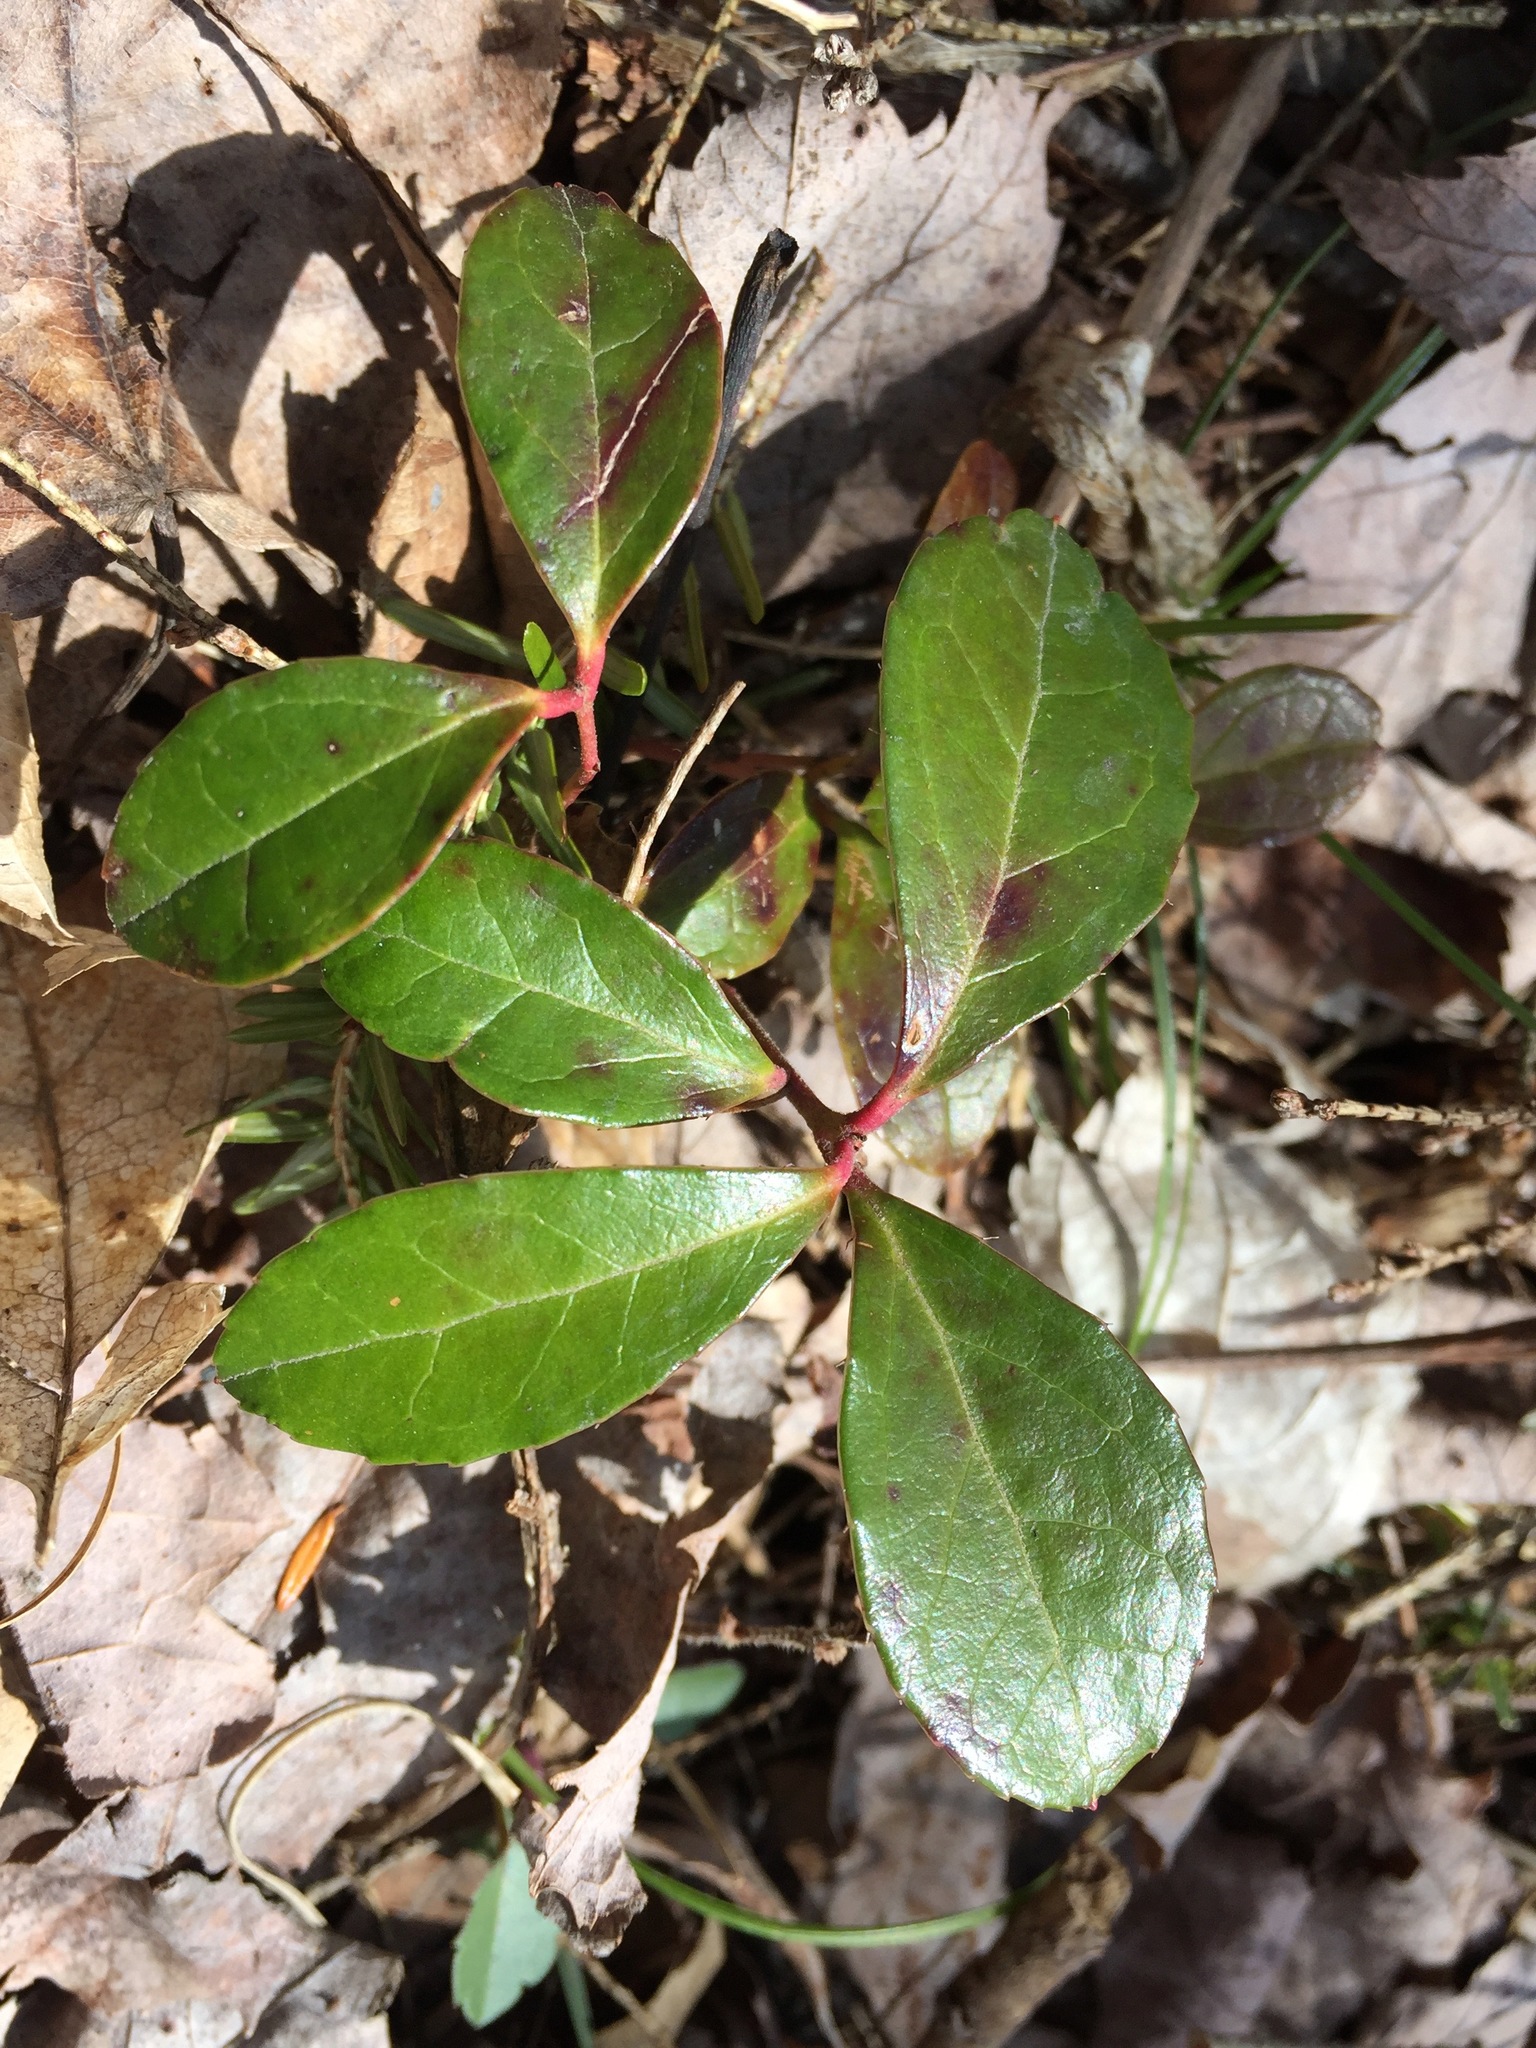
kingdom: Plantae
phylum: Tracheophyta
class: Magnoliopsida
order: Ericales
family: Ericaceae
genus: Gaultheria
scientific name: Gaultheria procumbens
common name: Checkerberry
